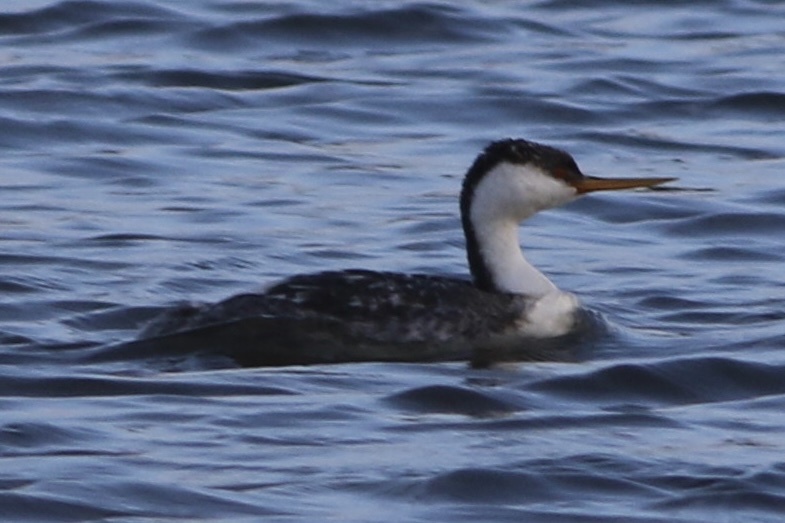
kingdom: Animalia
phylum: Chordata
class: Aves
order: Podicipediformes
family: Podicipedidae
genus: Aechmophorus
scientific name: Aechmophorus occidentalis
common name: Western grebe
